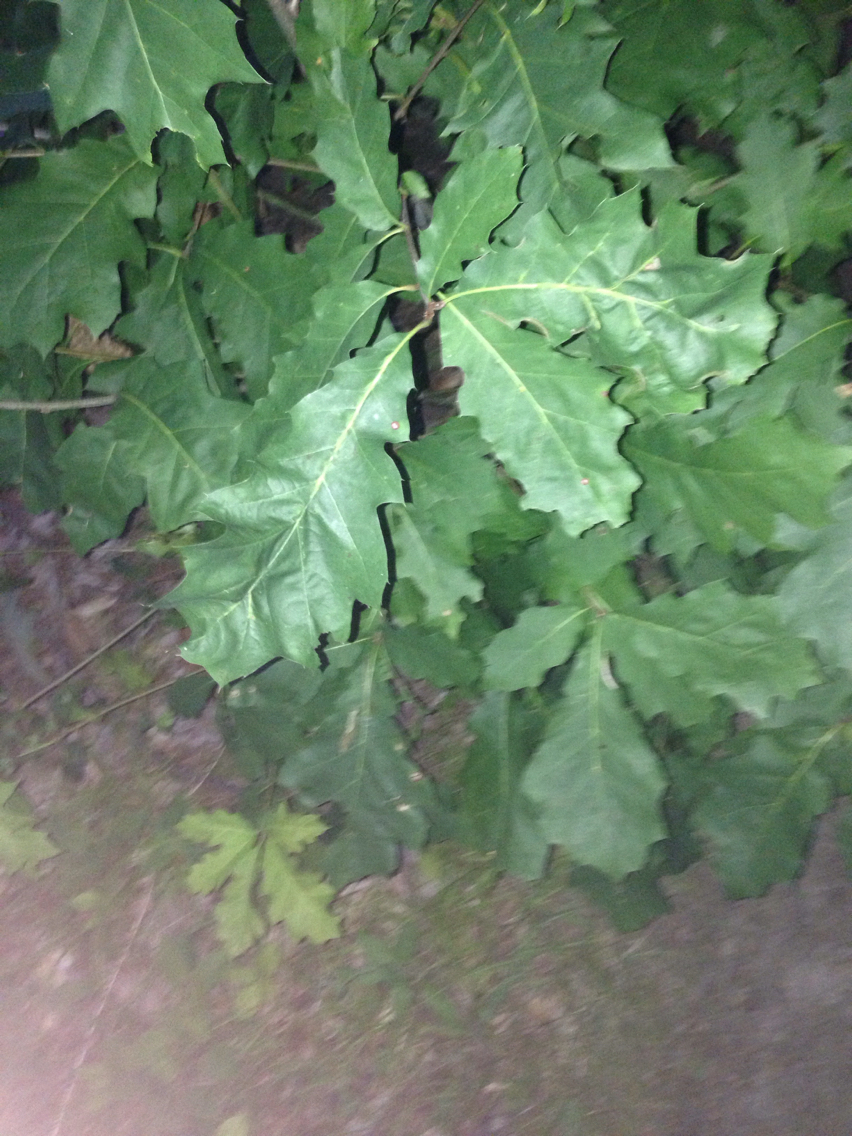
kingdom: Plantae
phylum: Tracheophyta
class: Magnoliopsida
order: Fagales
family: Fagaceae
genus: Quercus
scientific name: Quercus rubra
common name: Red oak
